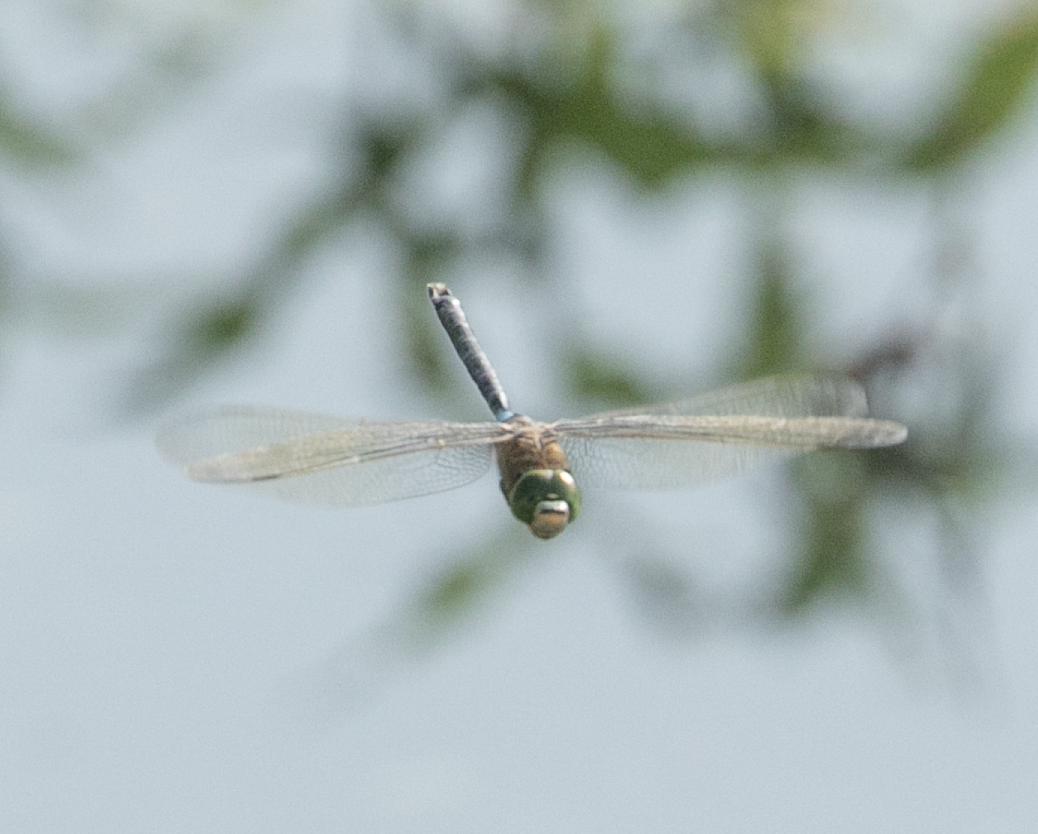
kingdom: Animalia
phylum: Arthropoda
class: Insecta
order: Odonata
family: Aeshnidae
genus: Anax
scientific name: Anax parthenope
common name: Lesser emperor
